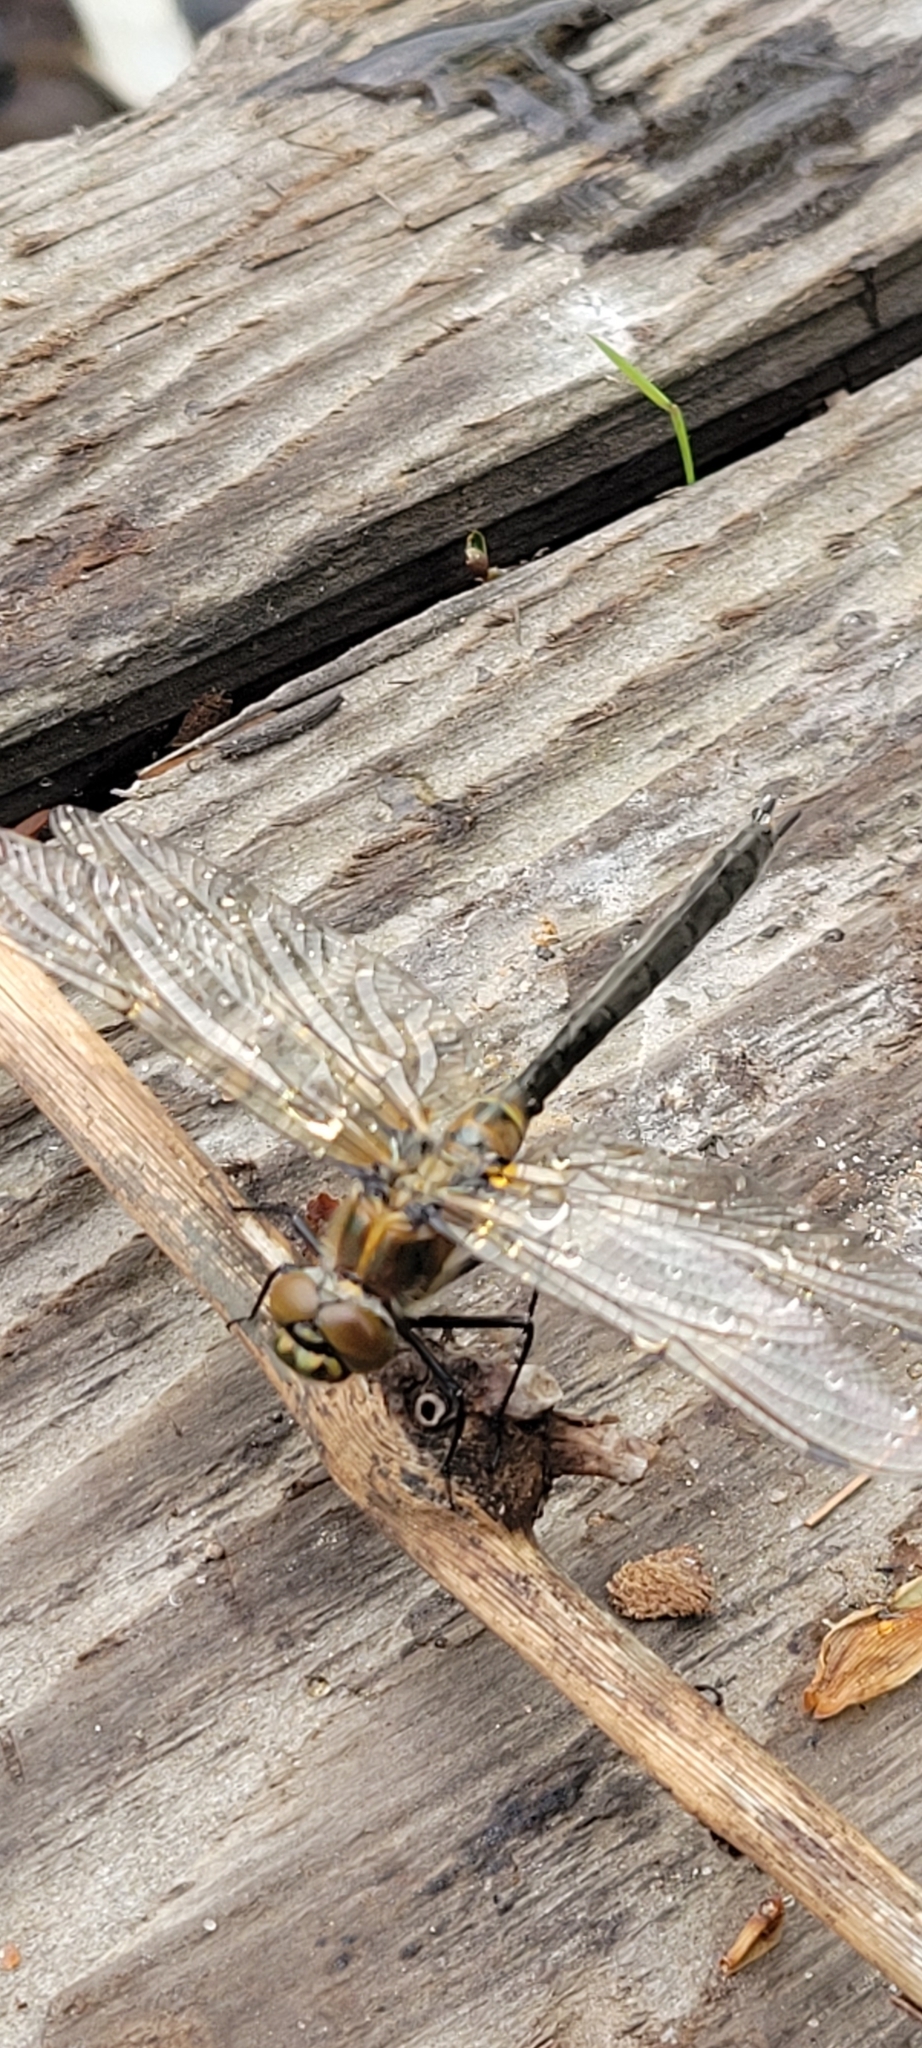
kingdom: Animalia
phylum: Arthropoda
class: Insecta
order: Odonata
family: Corduliidae
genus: Cordulia
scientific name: Cordulia shurtleffii
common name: American emerald
